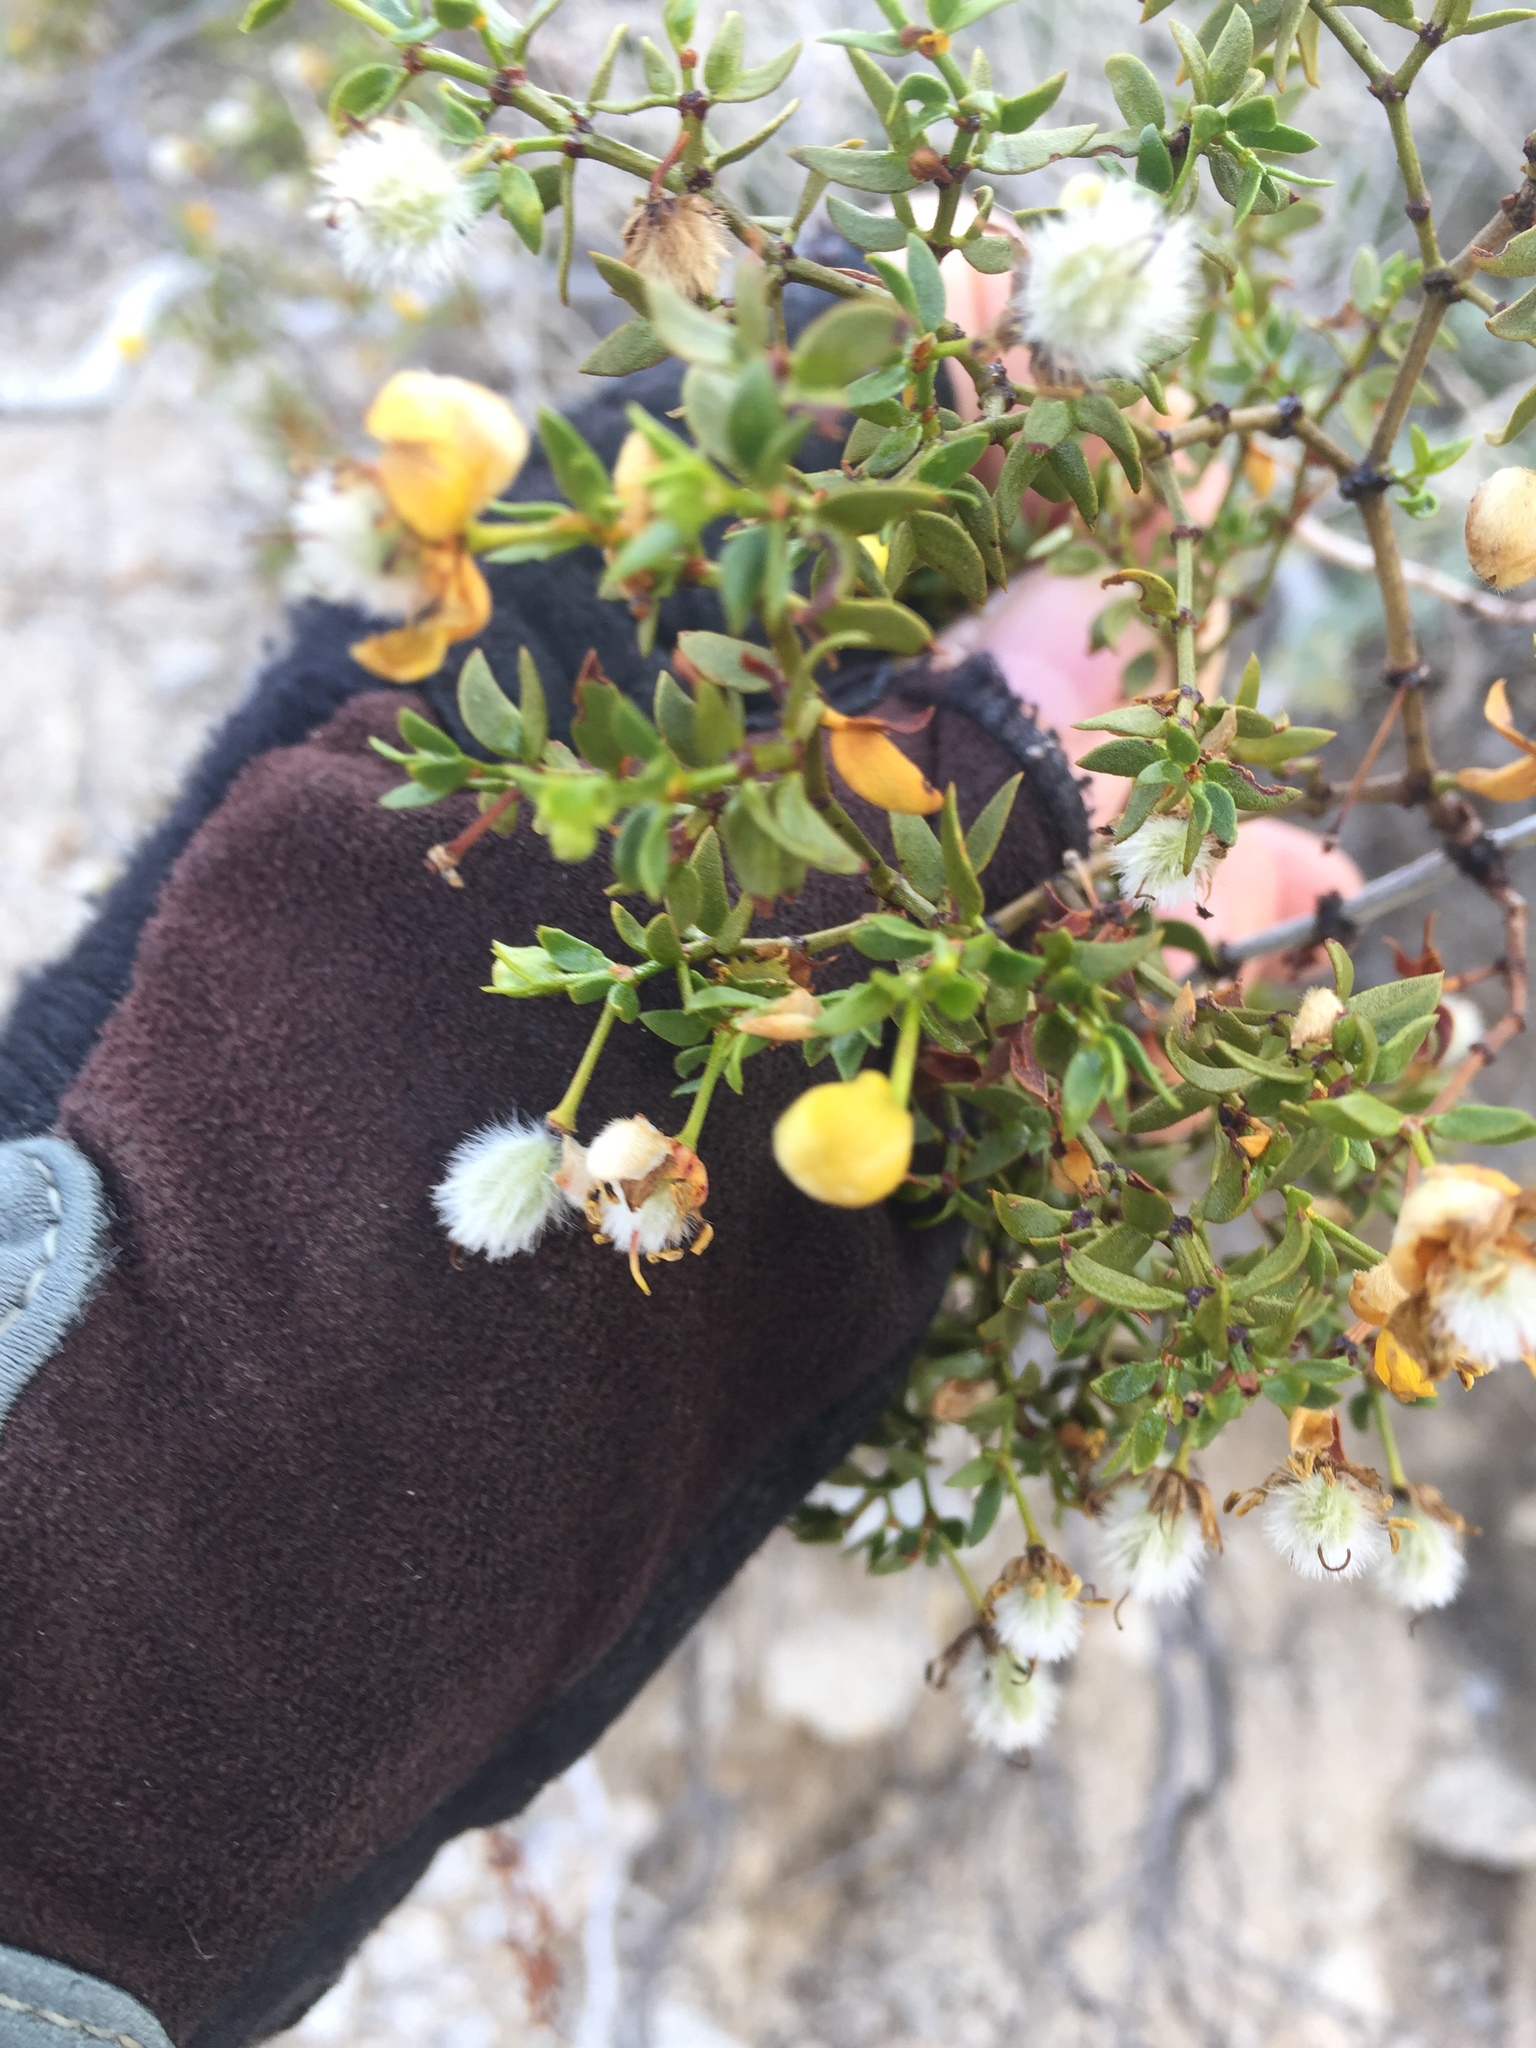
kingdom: Plantae
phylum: Tracheophyta
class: Magnoliopsida
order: Zygophyllales
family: Zygophyllaceae
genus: Larrea
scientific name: Larrea tridentata
